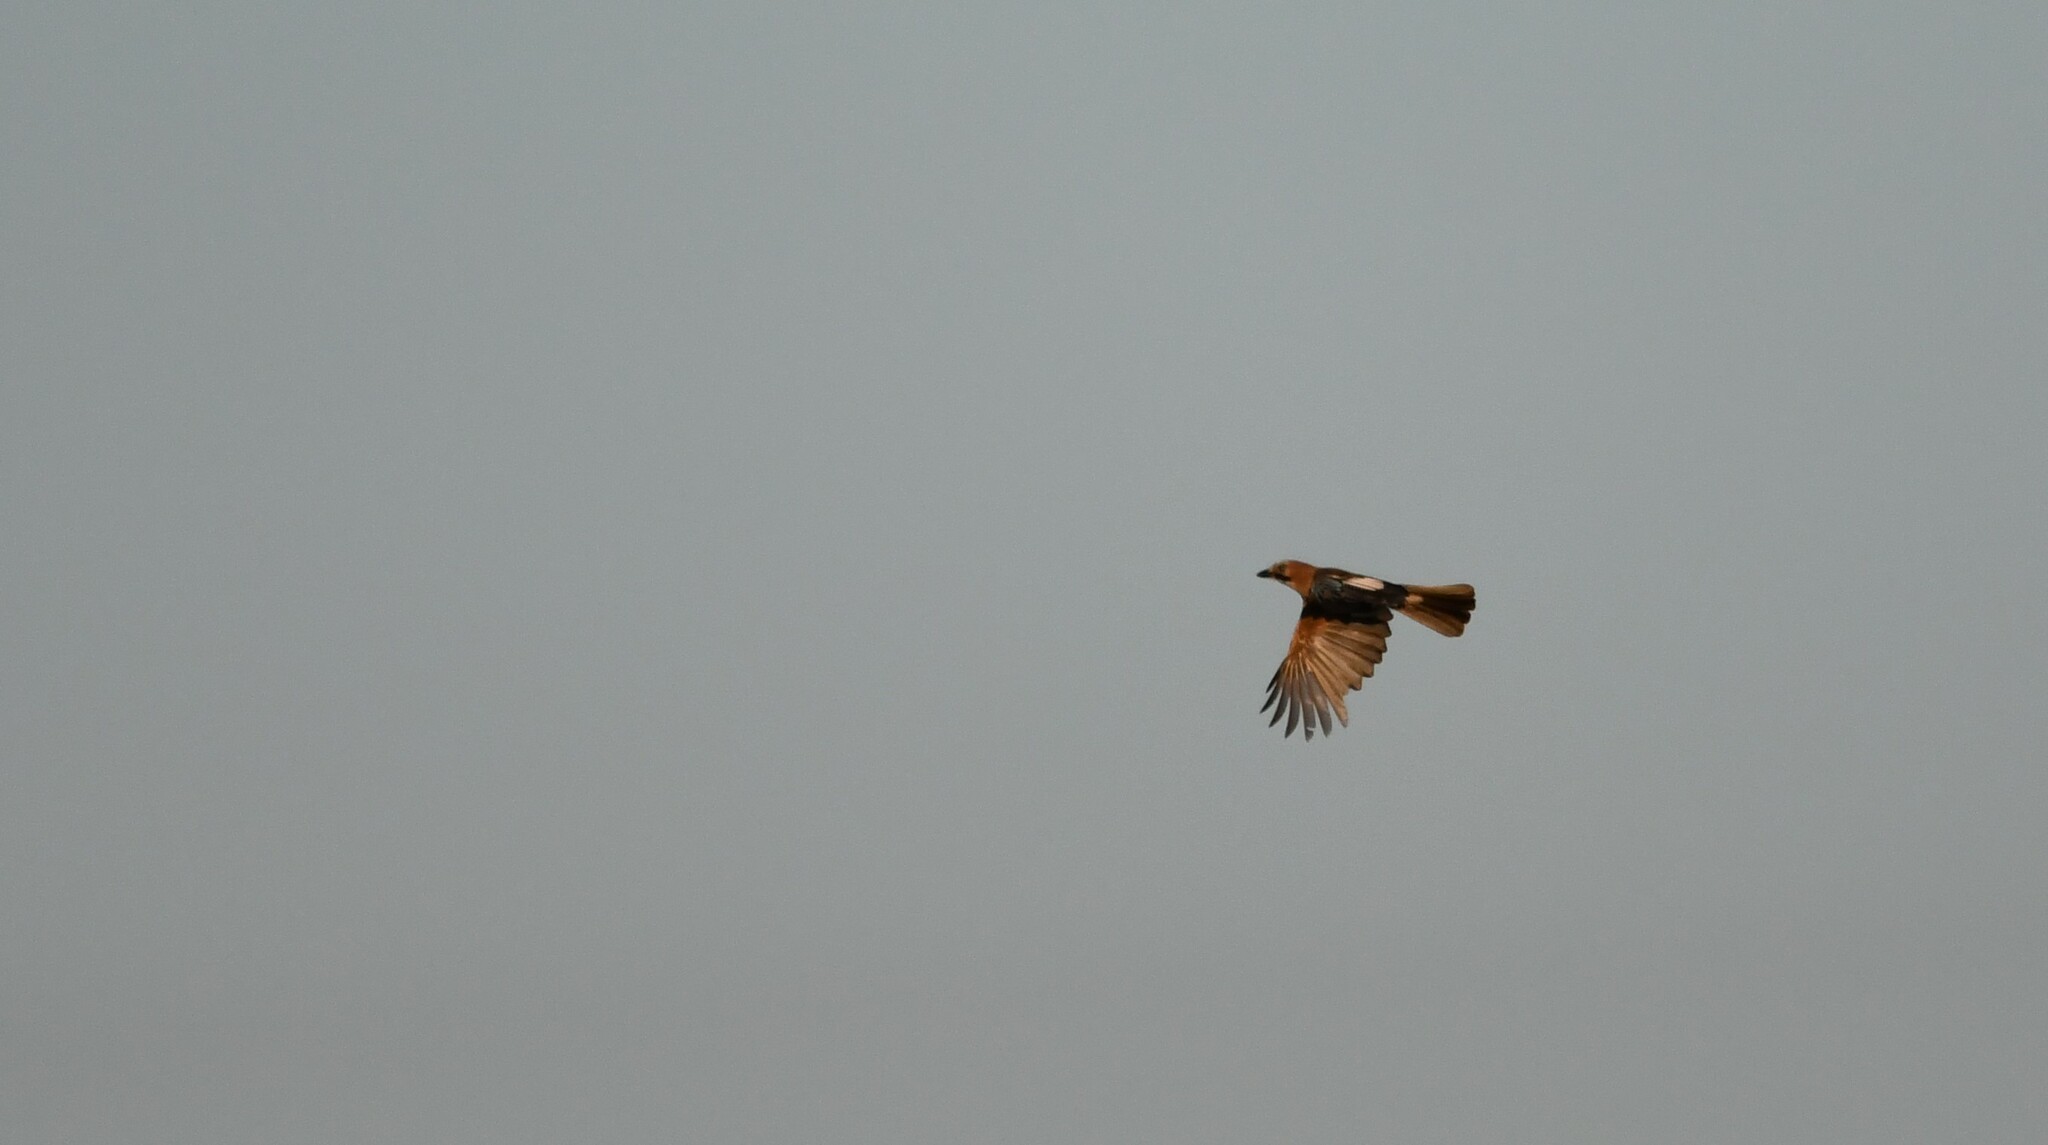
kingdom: Animalia
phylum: Chordata
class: Aves
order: Passeriformes
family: Corvidae
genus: Garrulus
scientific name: Garrulus glandarius
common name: Eurasian jay
